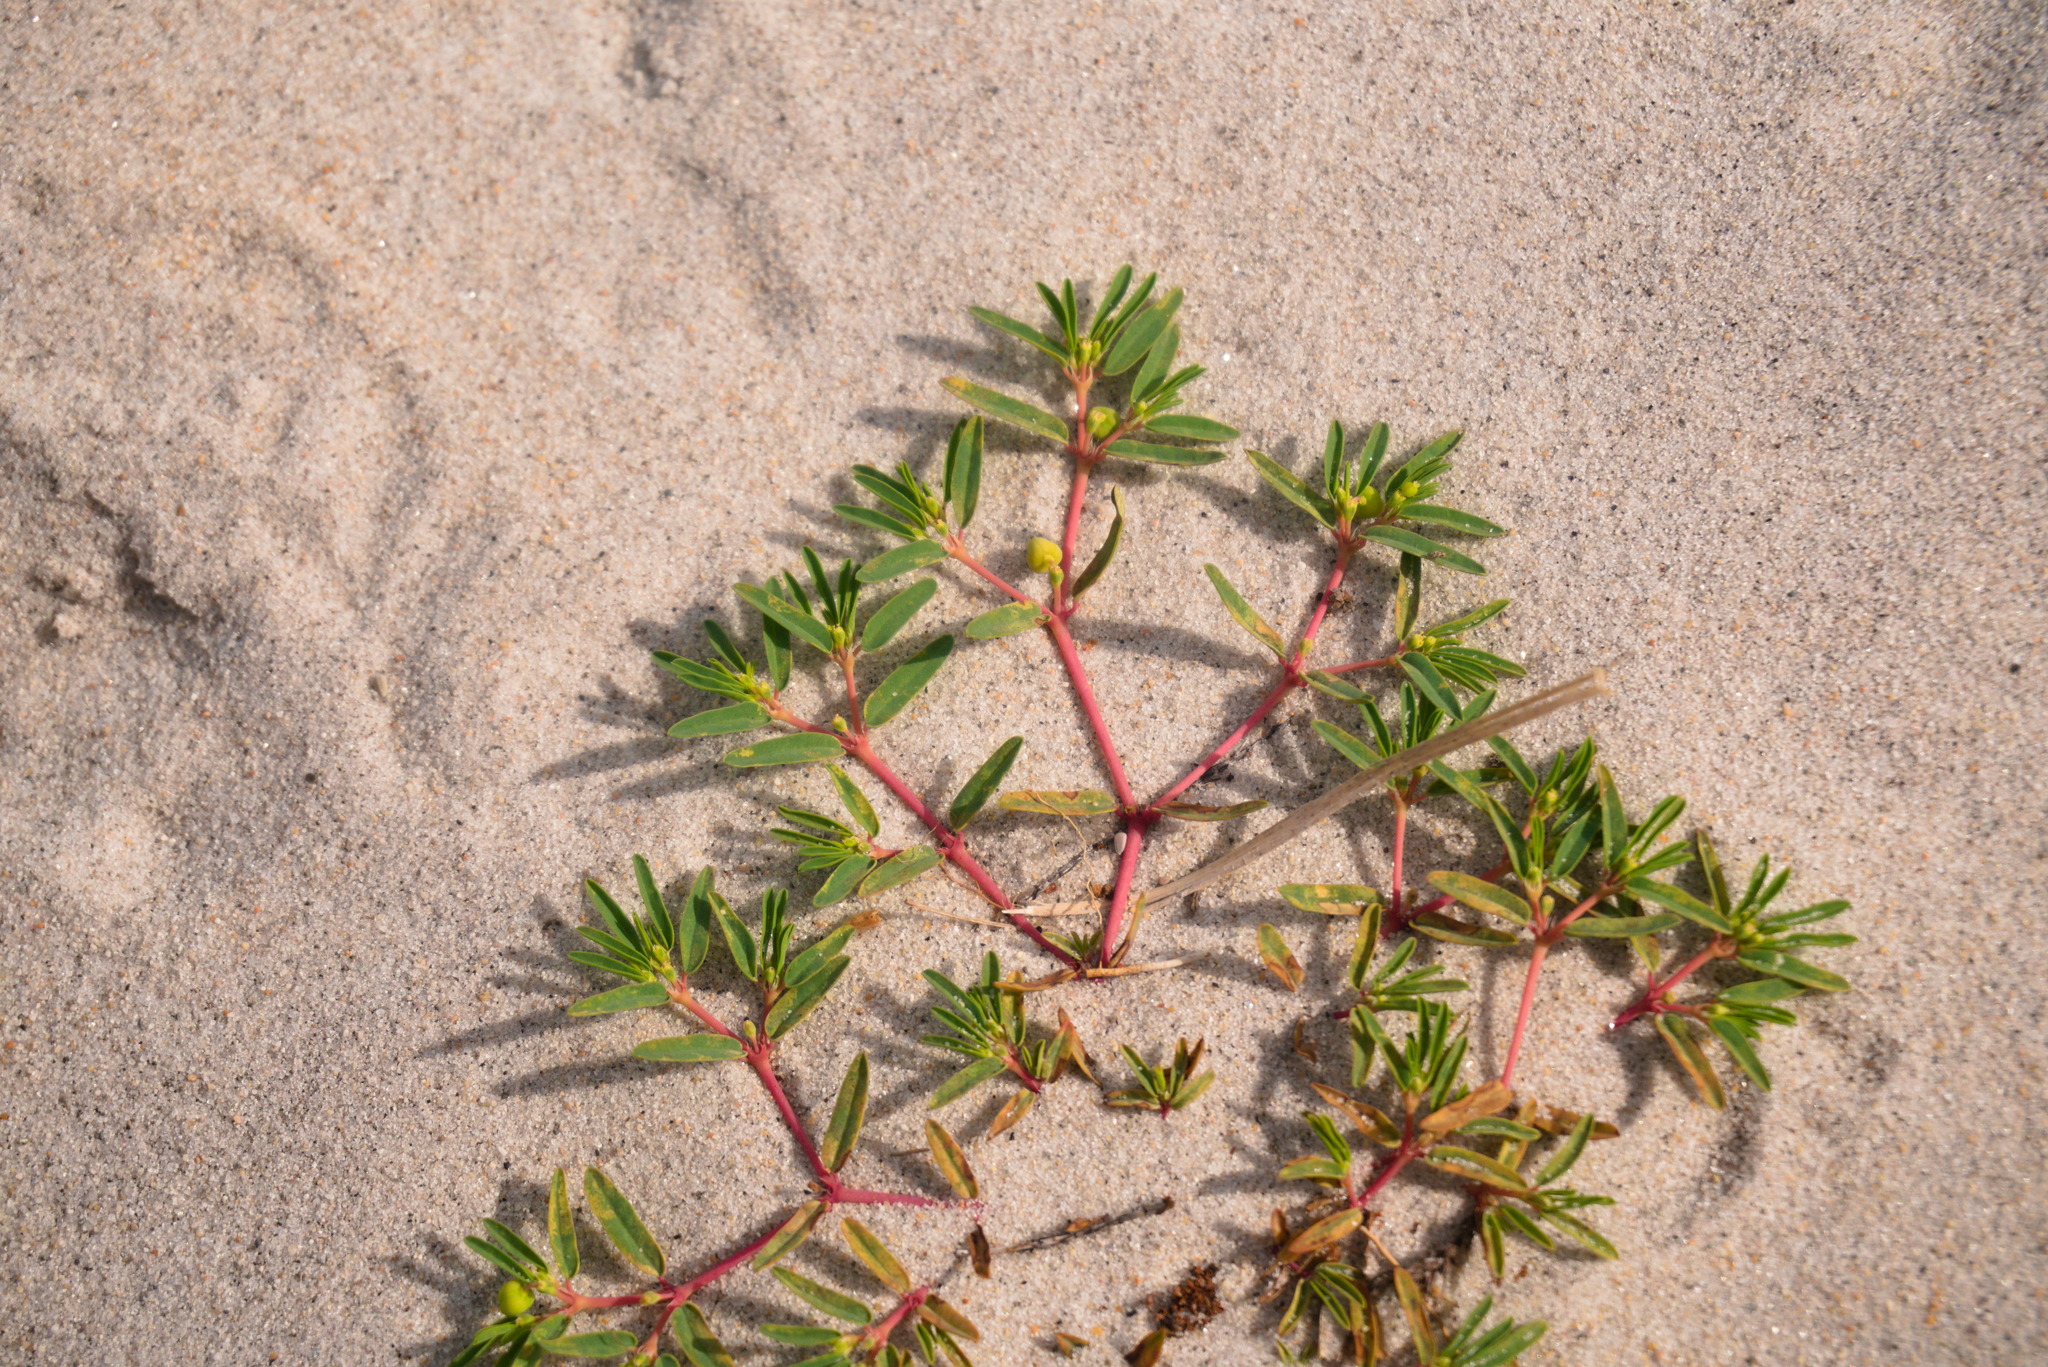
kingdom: Plantae
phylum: Tracheophyta
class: Magnoliopsida
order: Malpighiales
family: Euphorbiaceae
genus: Euphorbia
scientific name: Euphorbia polygonifolia
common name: Knotweed spurge
